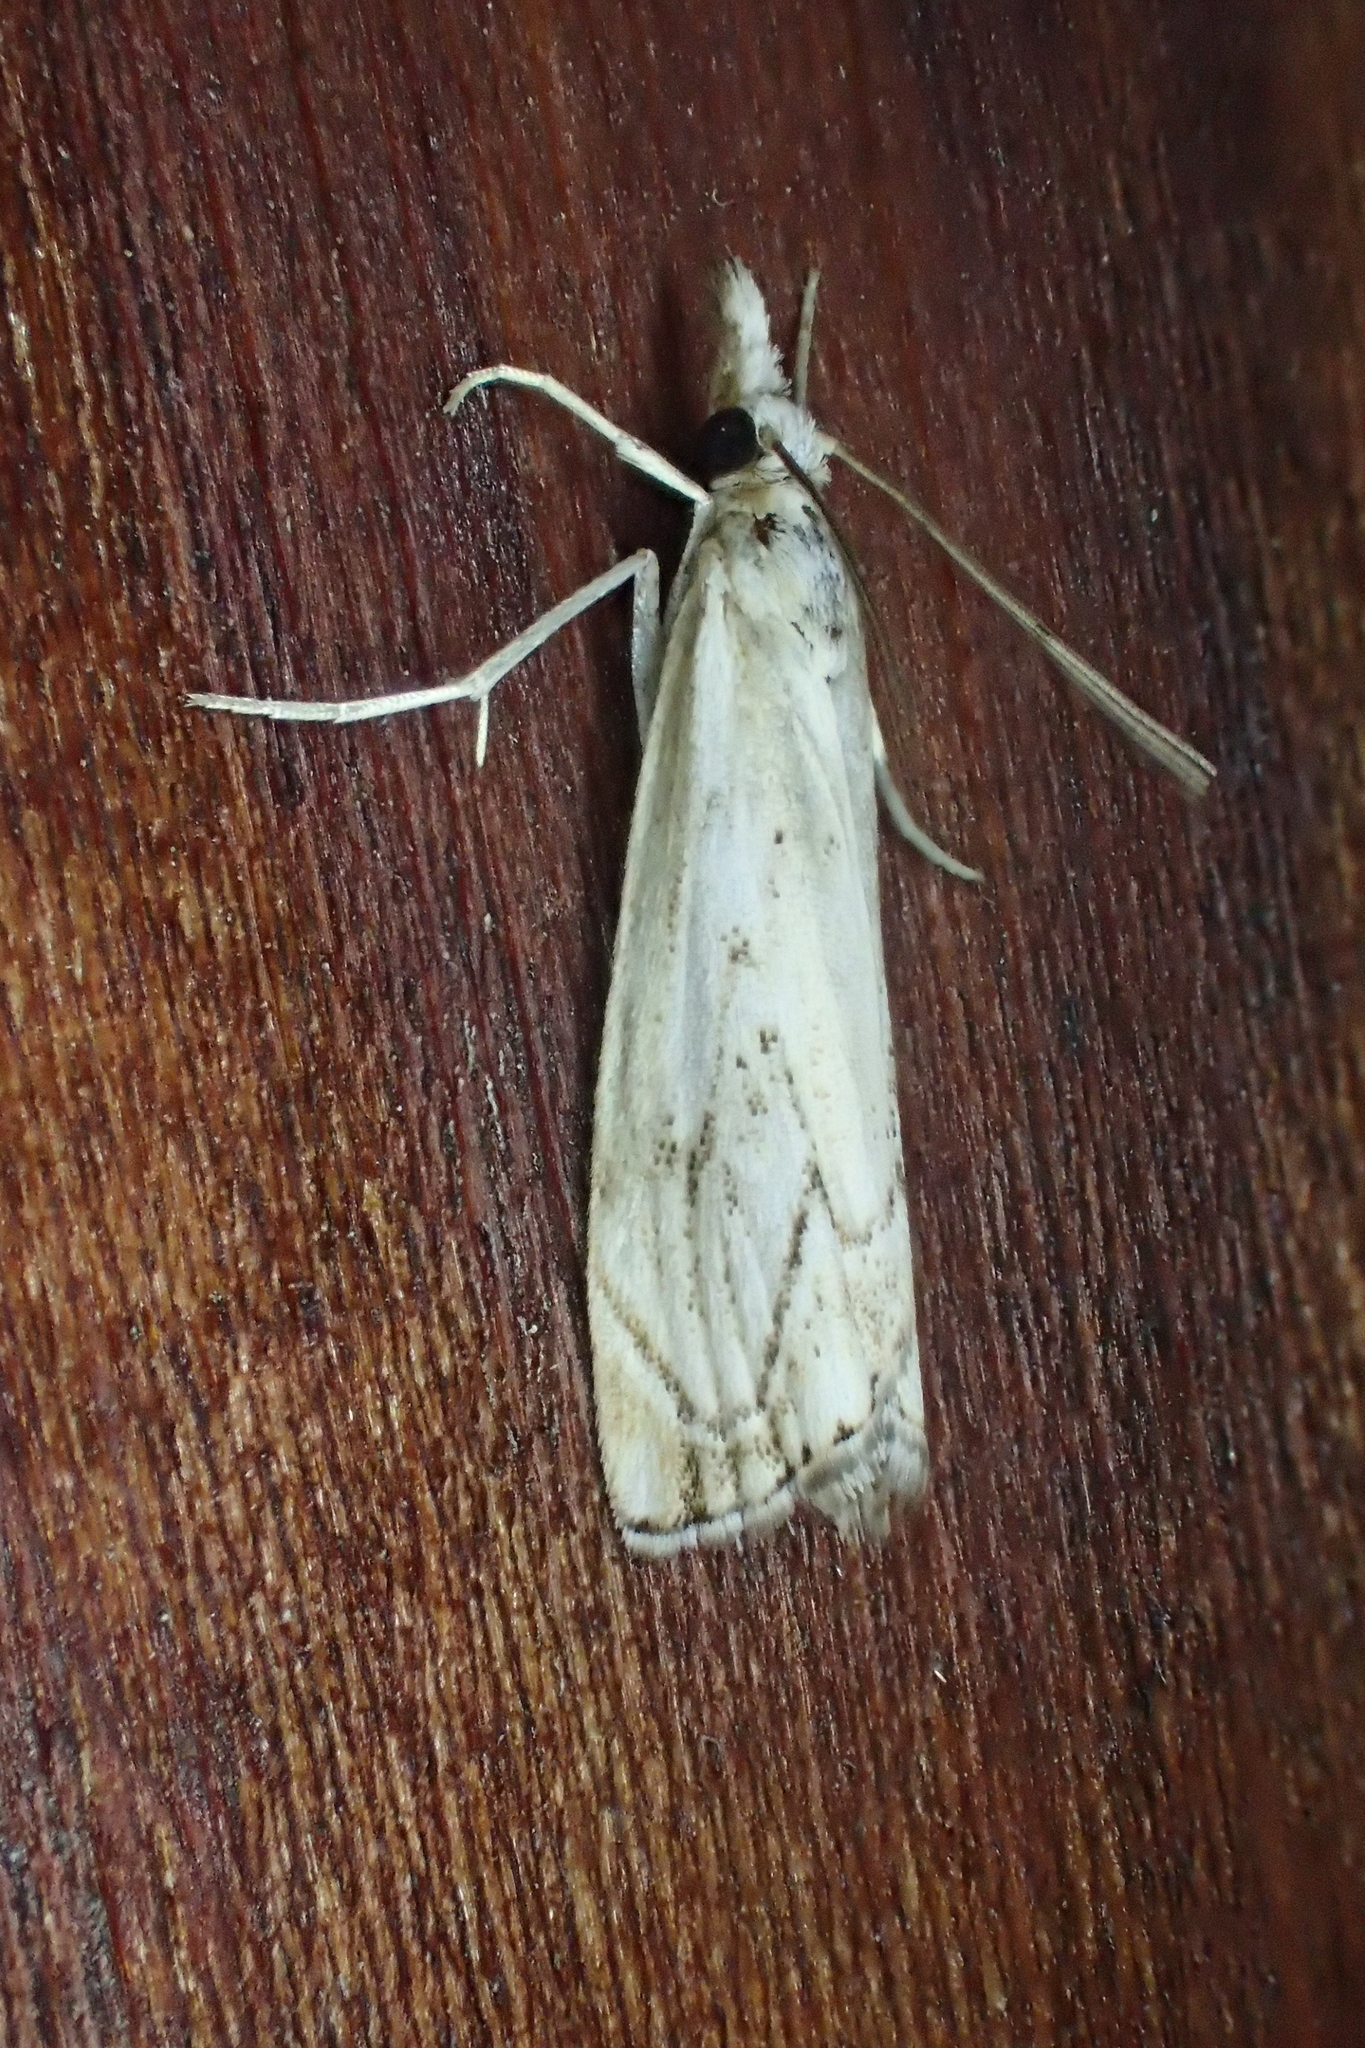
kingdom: Animalia
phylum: Arthropoda
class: Insecta
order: Lepidoptera
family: Crambidae
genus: Catoptria
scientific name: Catoptria falsella
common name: Chequered grass-veneer
